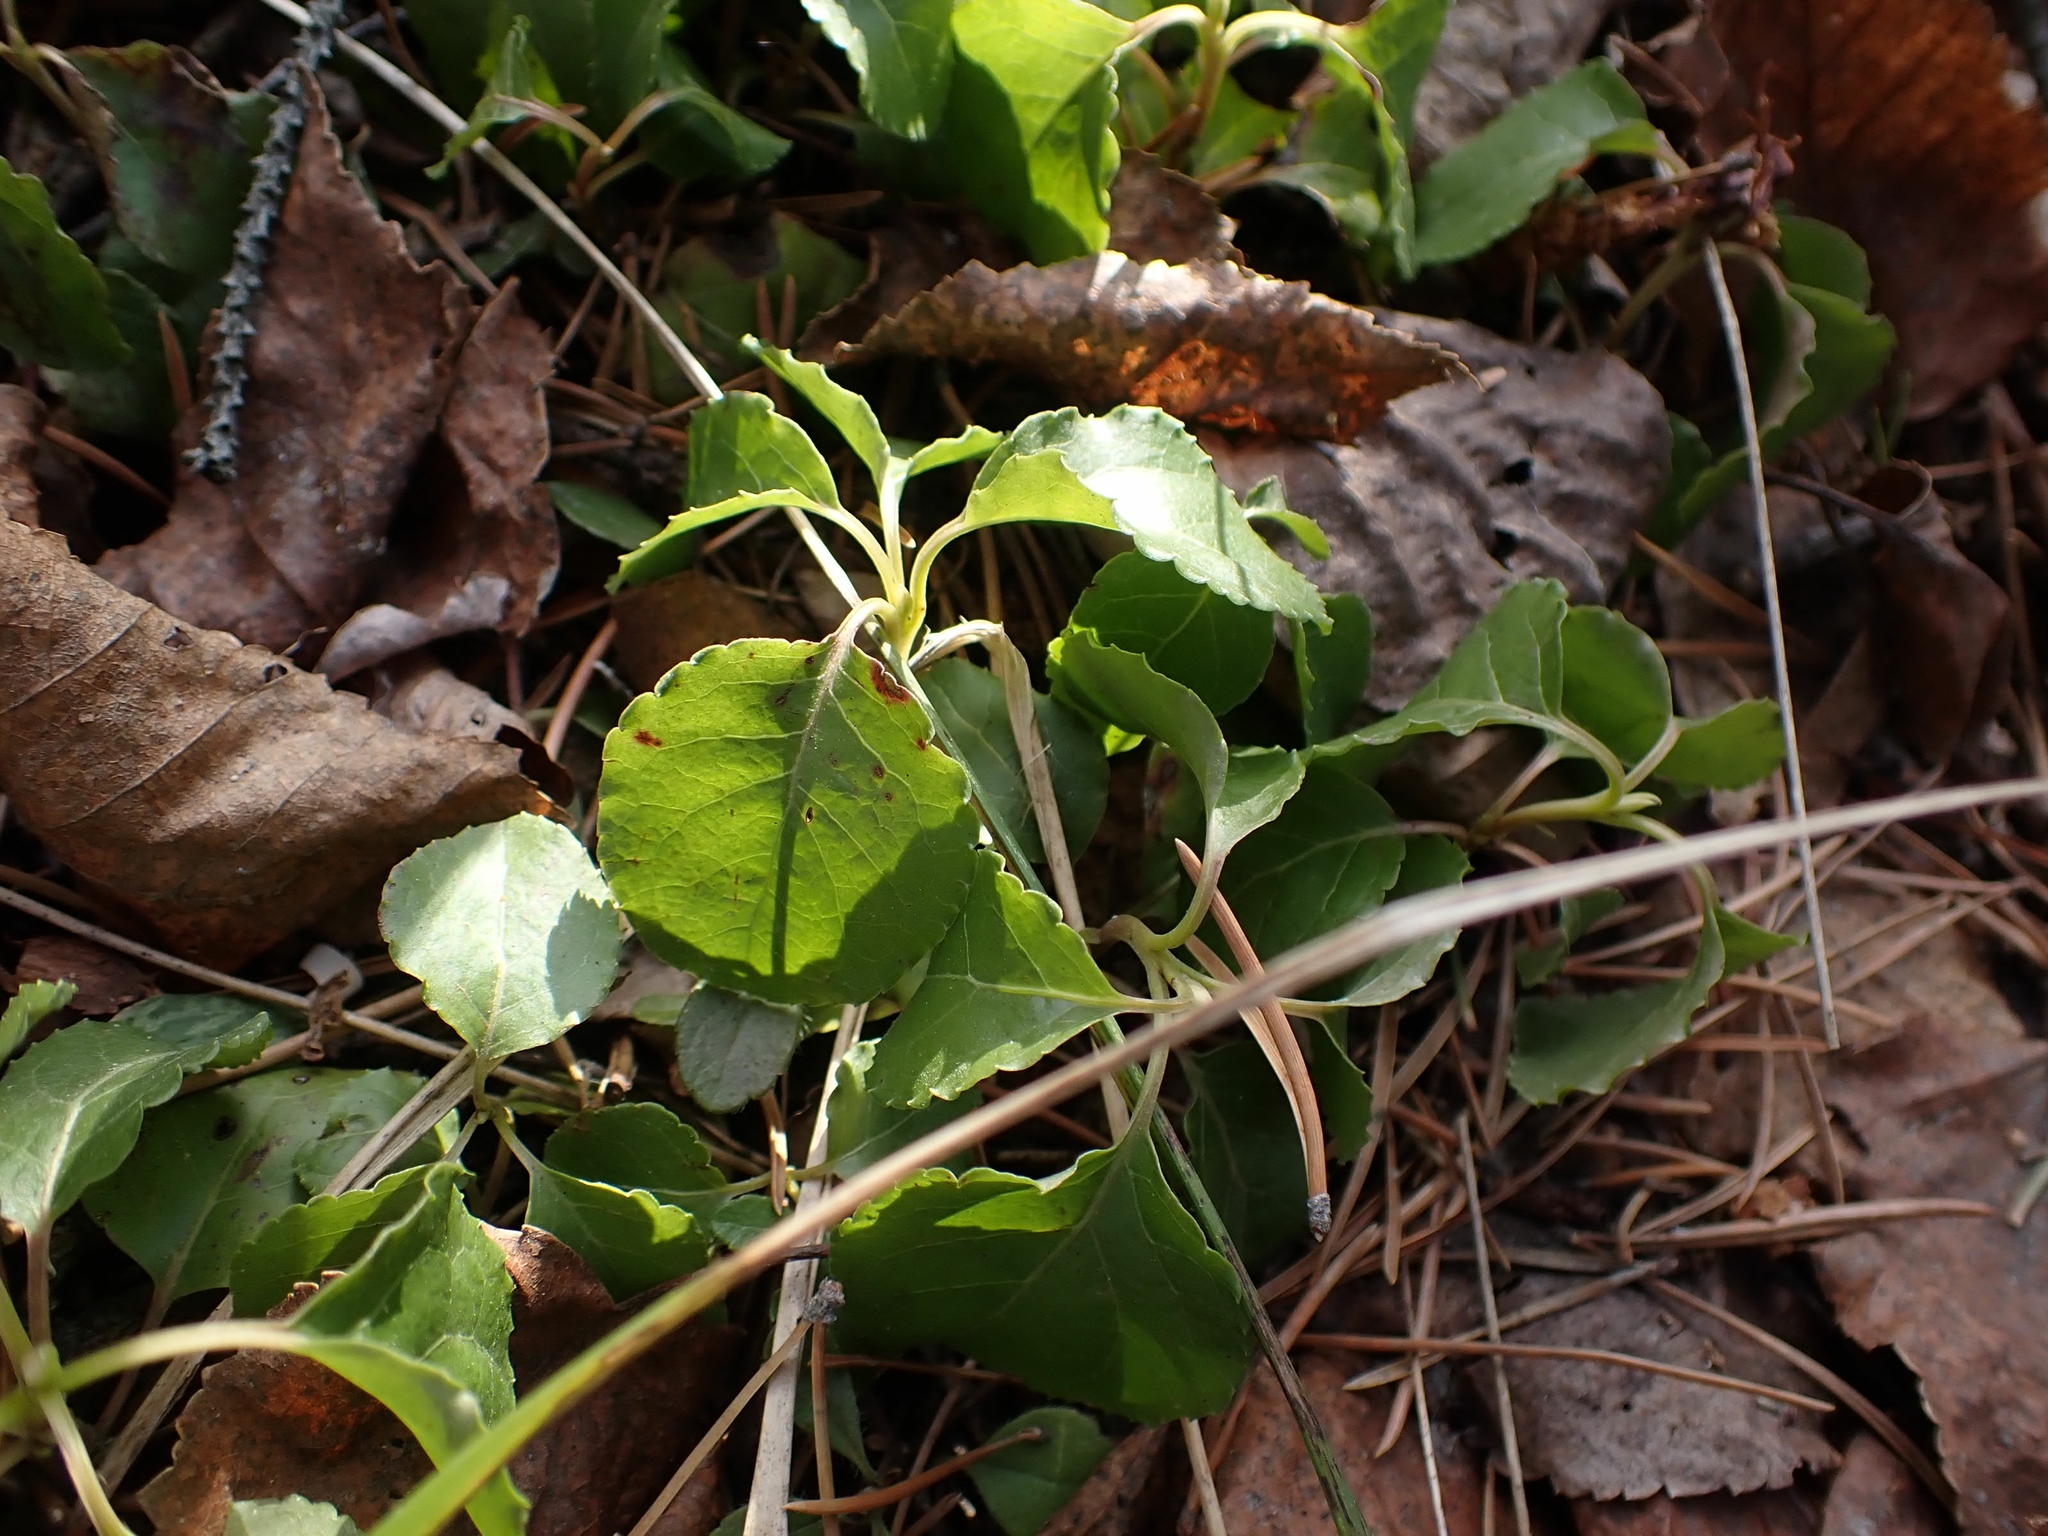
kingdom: Plantae
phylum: Tracheophyta
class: Magnoliopsida
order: Ericales
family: Ericaceae
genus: Orthilia
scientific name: Orthilia secunda
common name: One-sided orthilia
